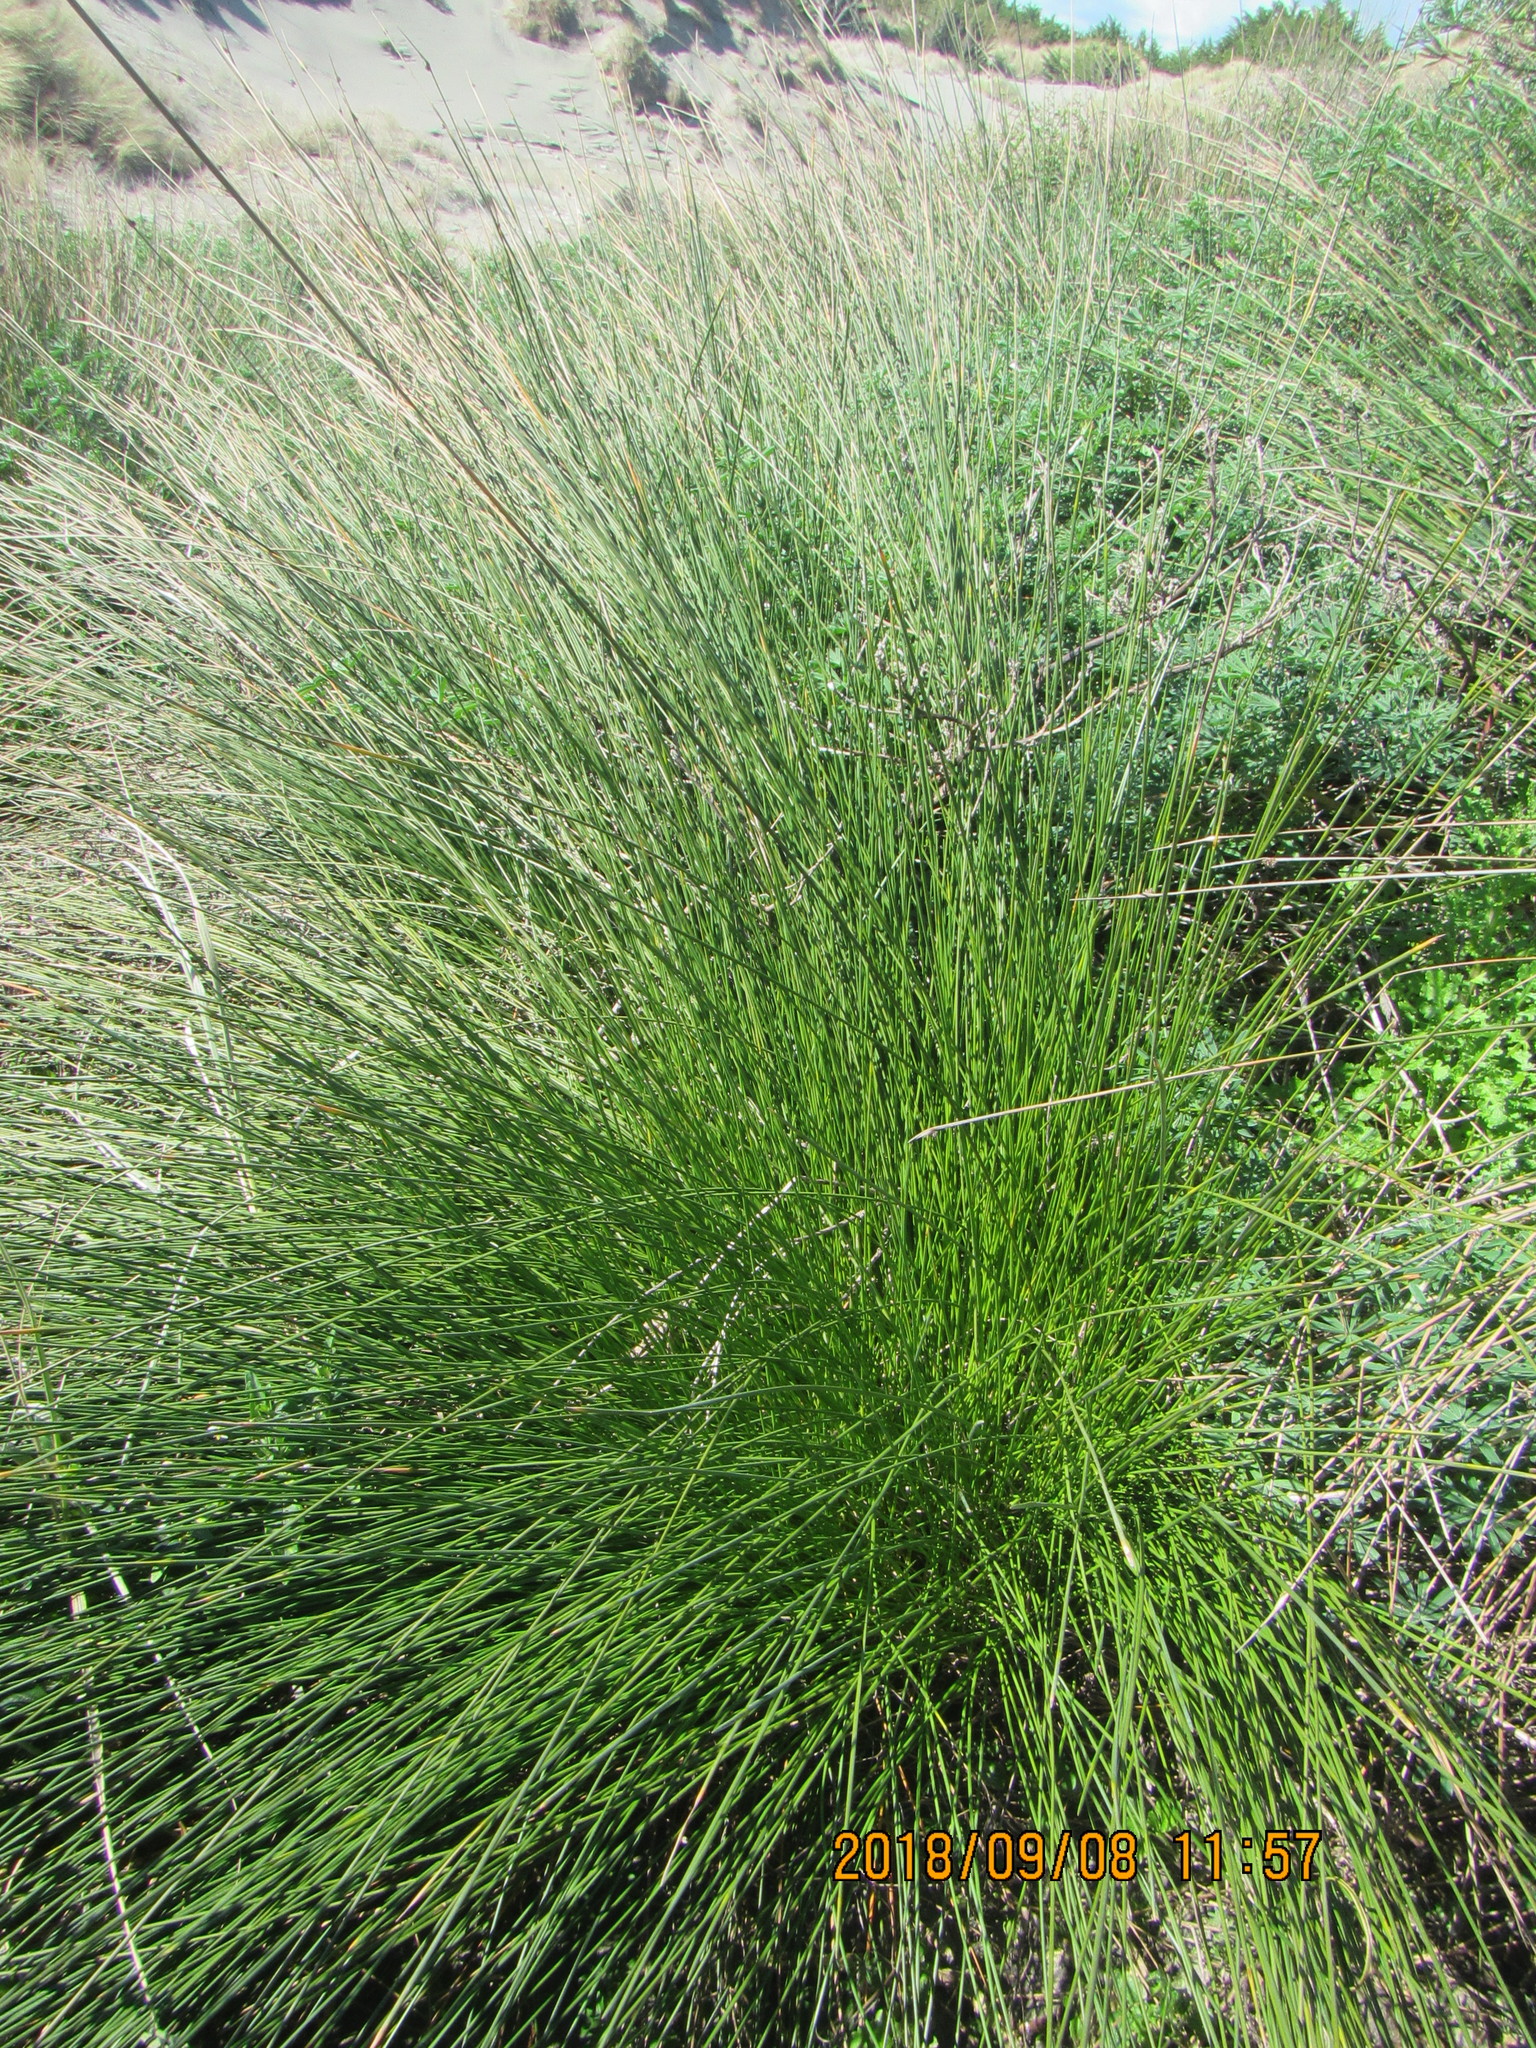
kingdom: Plantae
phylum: Tracheophyta
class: Liliopsida
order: Poales
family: Cyperaceae
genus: Ficinia
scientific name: Ficinia nodosa
